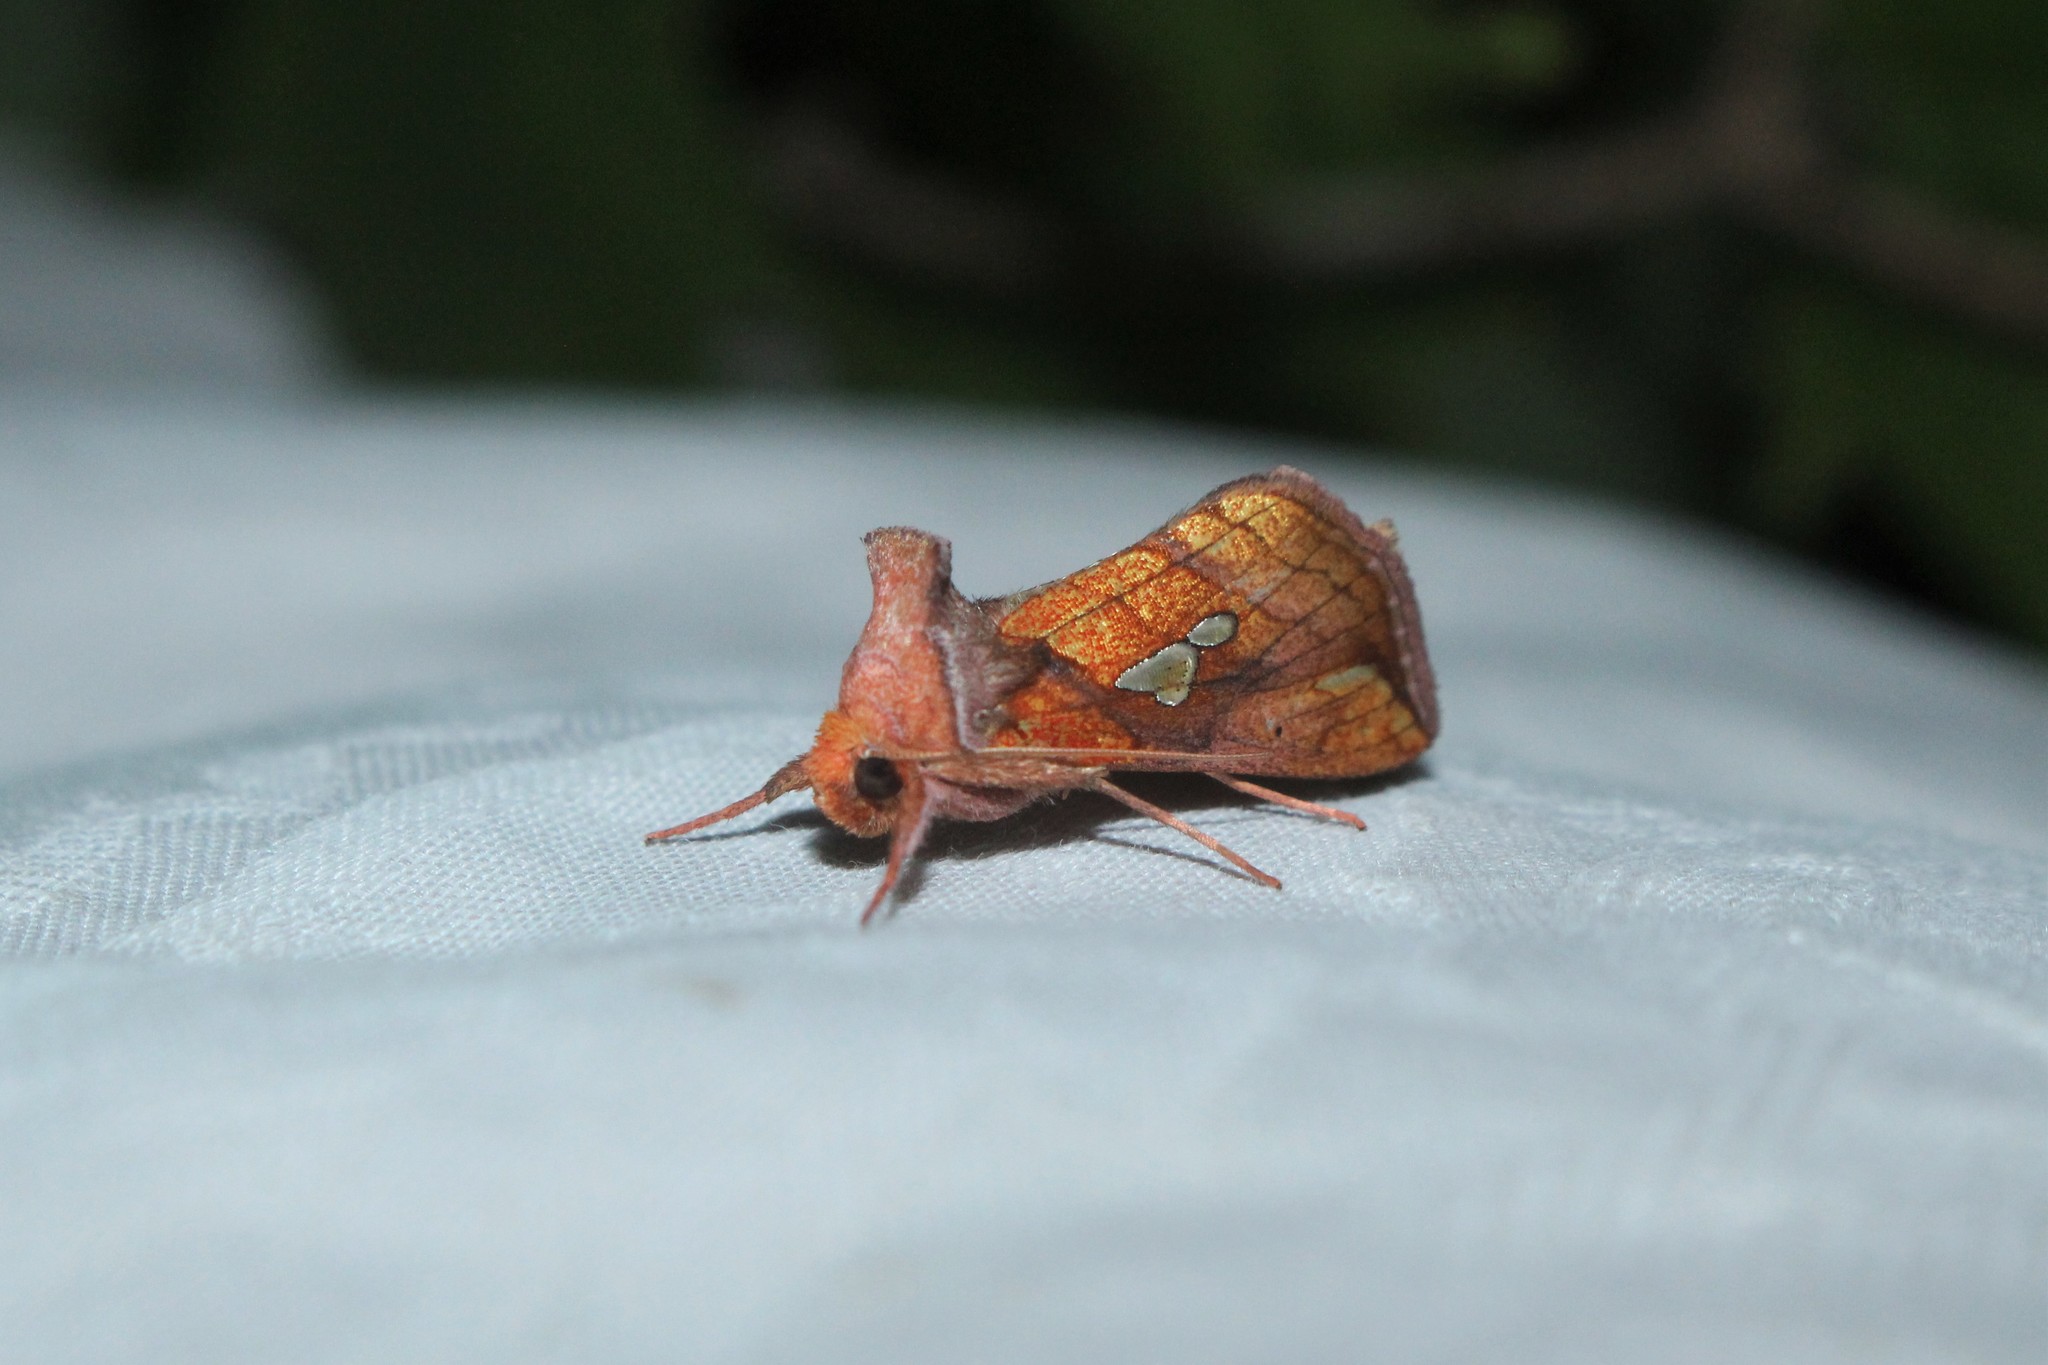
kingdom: Animalia
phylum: Arthropoda
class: Insecta
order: Lepidoptera
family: Noctuidae
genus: Plusia
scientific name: Plusia putnami
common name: Lempke's gold spot
